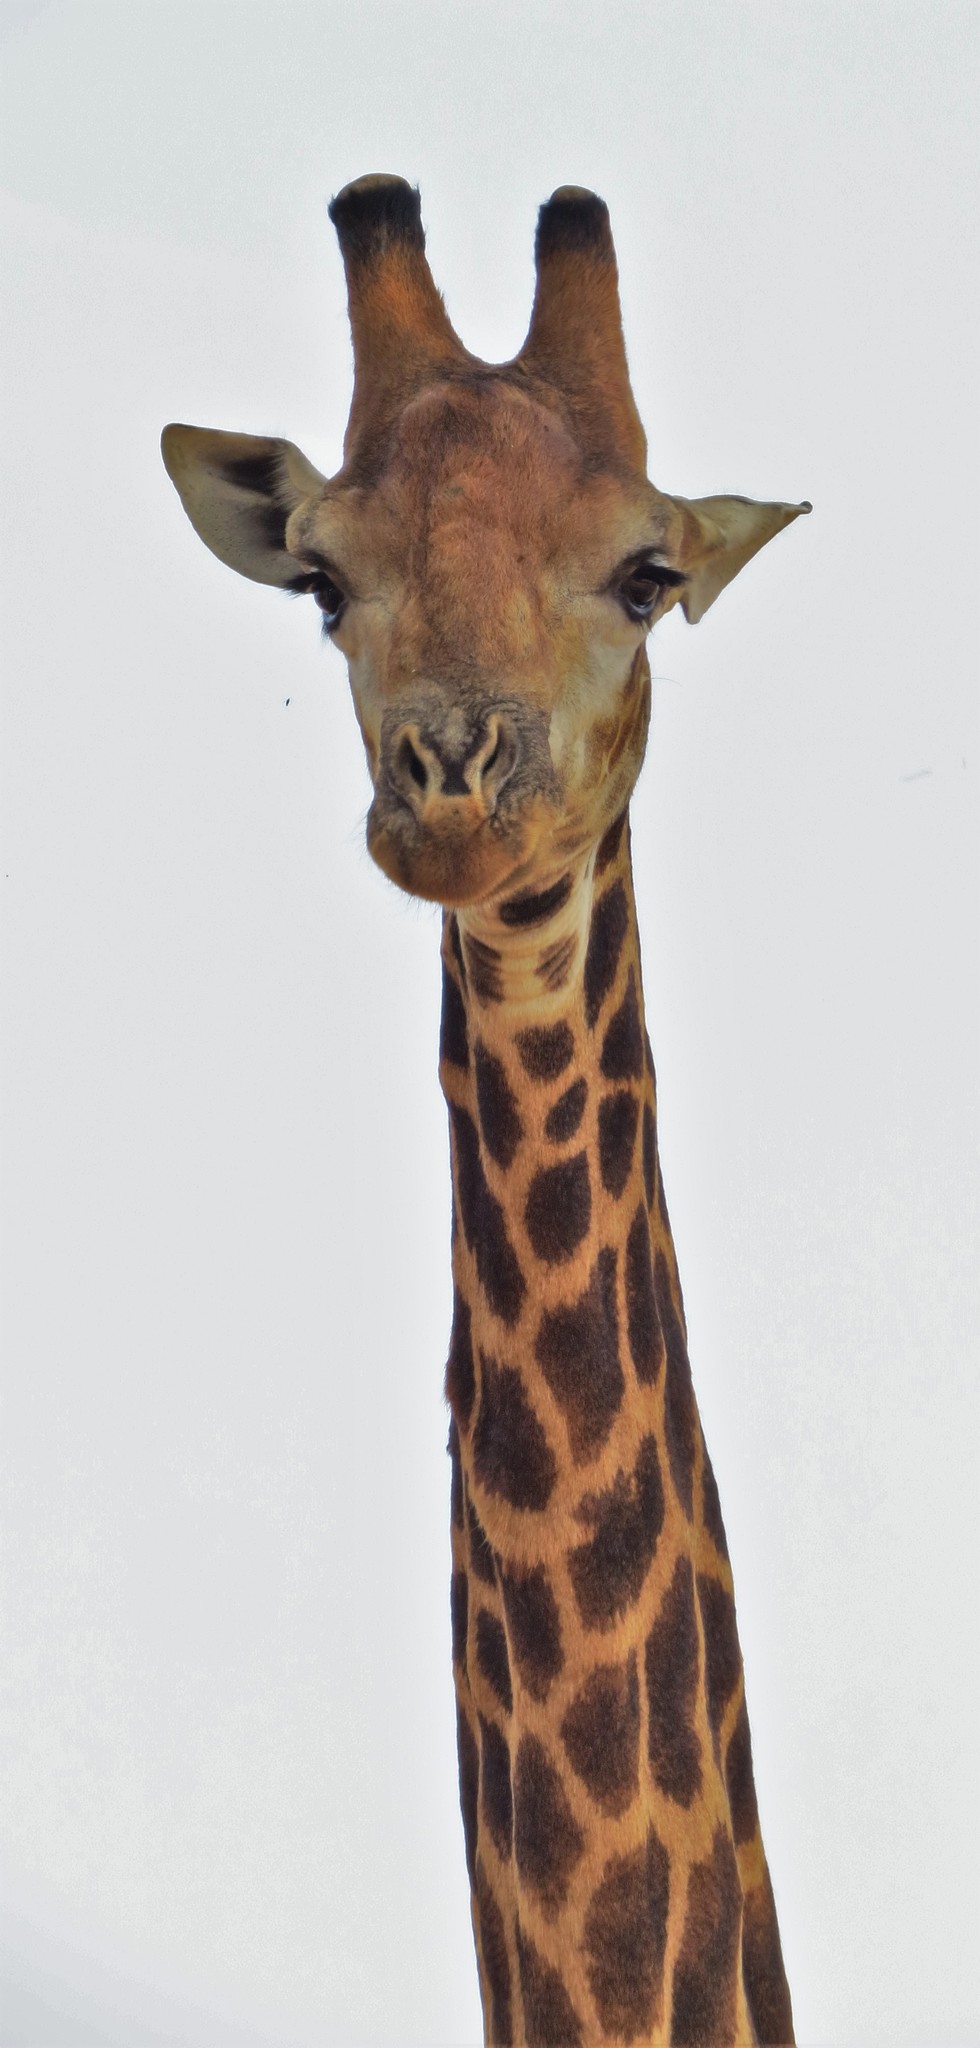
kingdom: Animalia
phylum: Chordata
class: Mammalia
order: Artiodactyla
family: Giraffidae
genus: Giraffa
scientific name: Giraffa giraffa
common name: Southern giraffe
